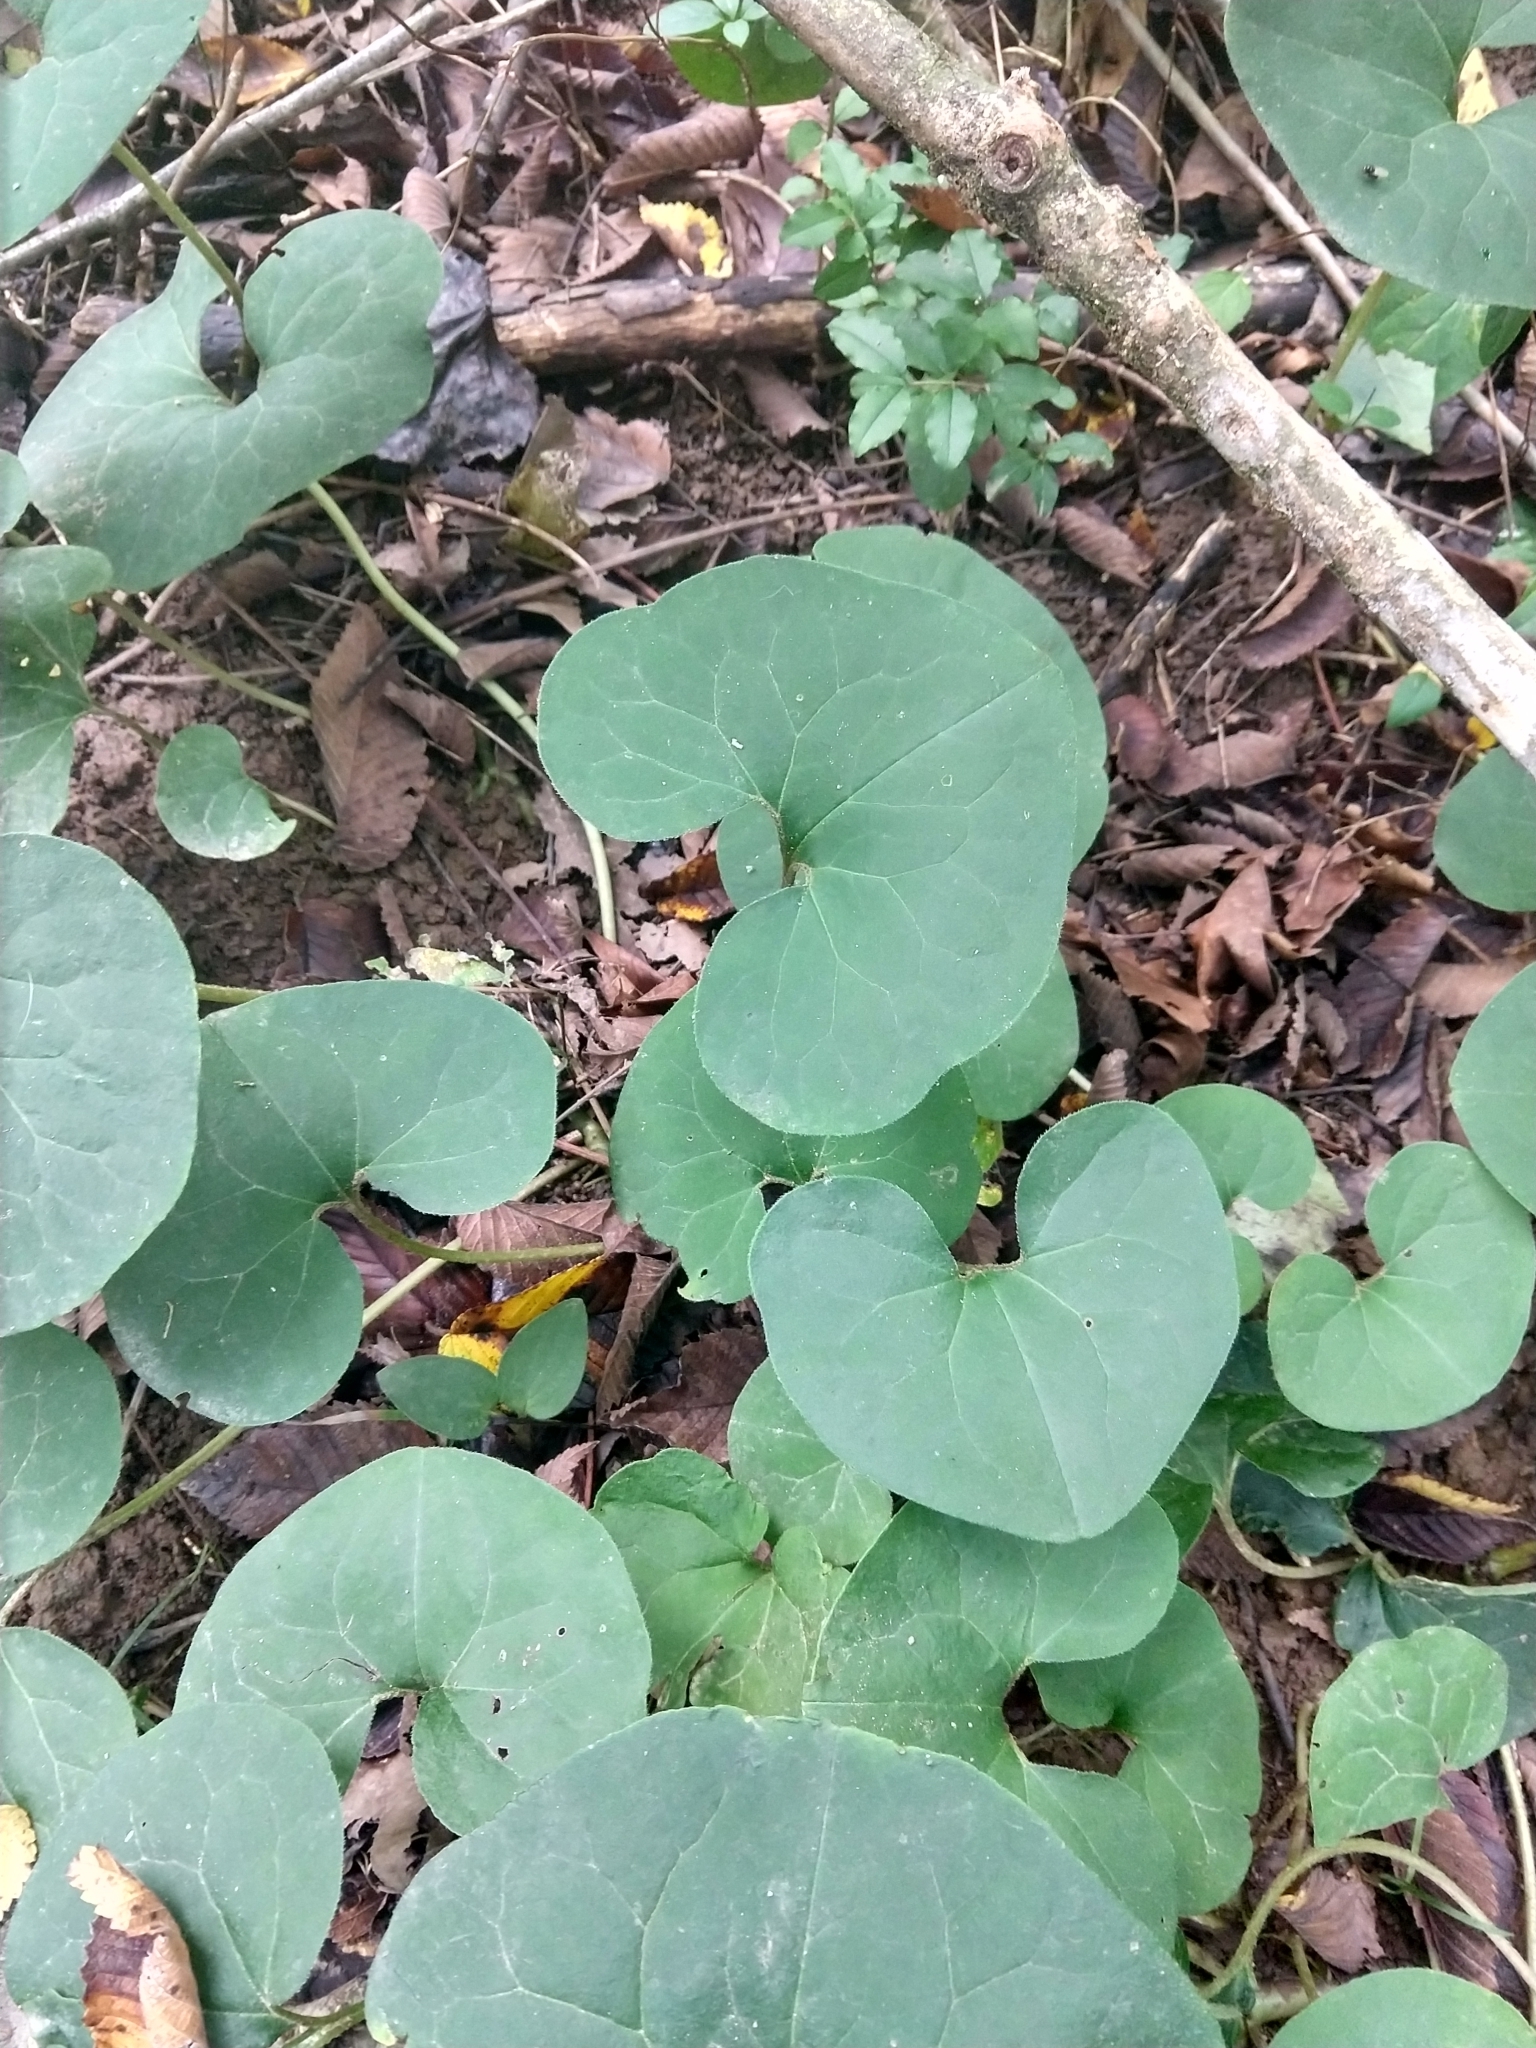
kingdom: Plantae
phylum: Tracheophyta
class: Magnoliopsida
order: Piperales
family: Aristolochiaceae
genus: Asarum
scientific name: Asarum canadense
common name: Wild ginger
